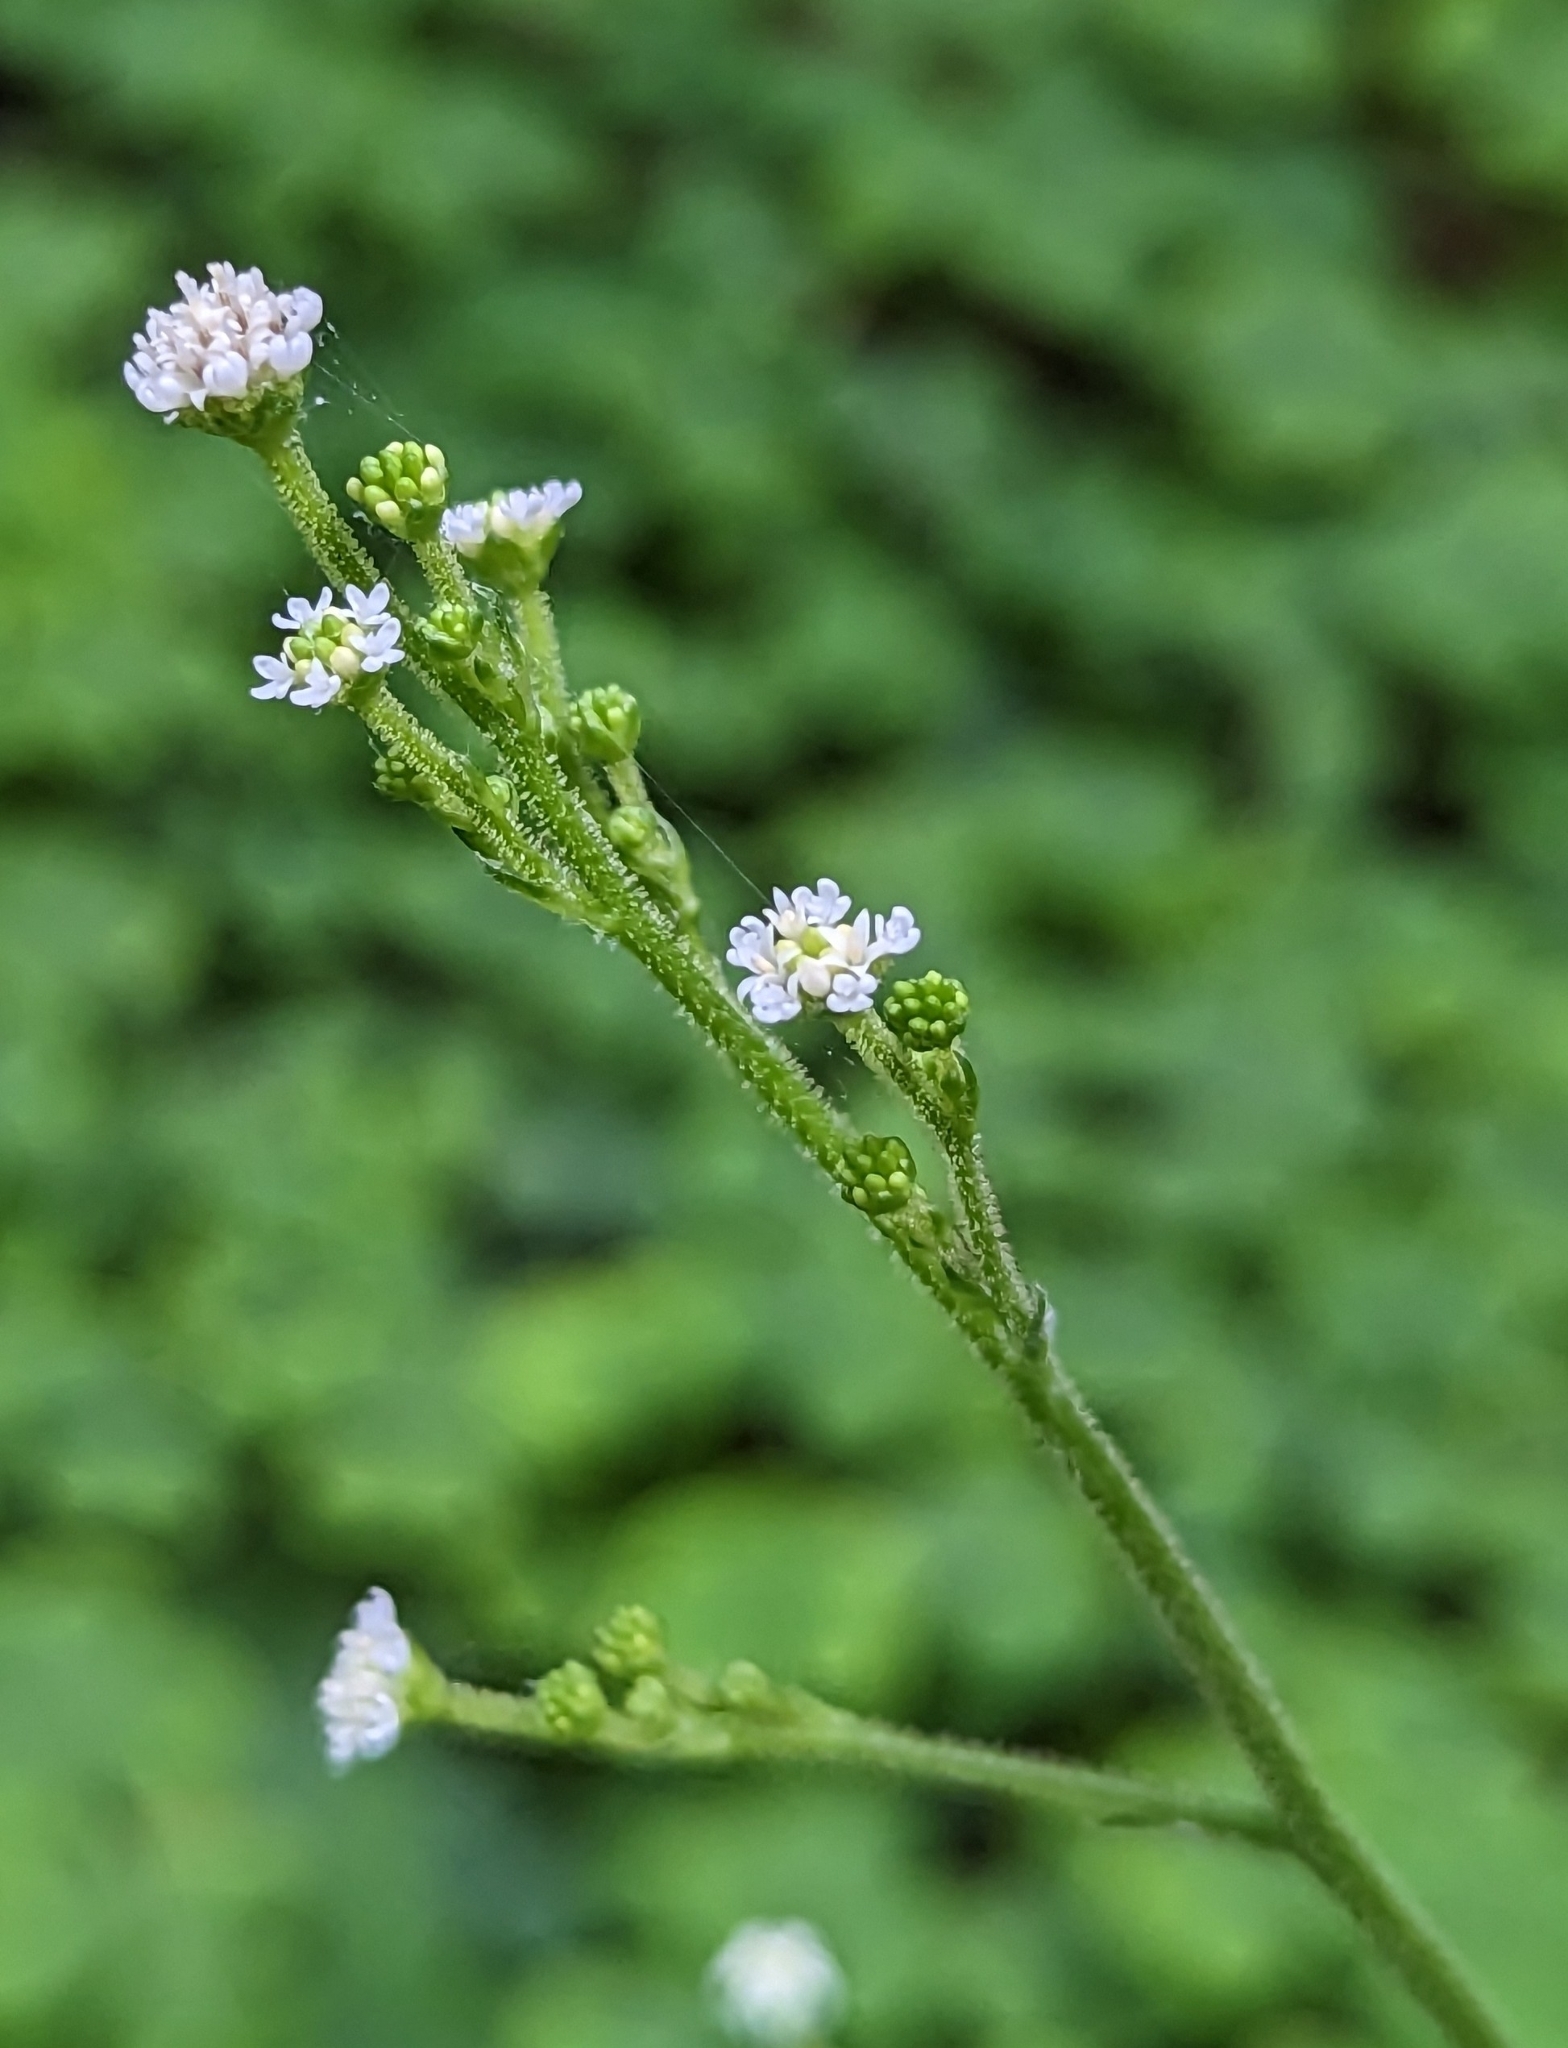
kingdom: Plantae
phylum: Tracheophyta
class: Magnoliopsida
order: Asterales
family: Asteraceae
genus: Adenocaulon
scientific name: Adenocaulon bicolor
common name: Trailplant
